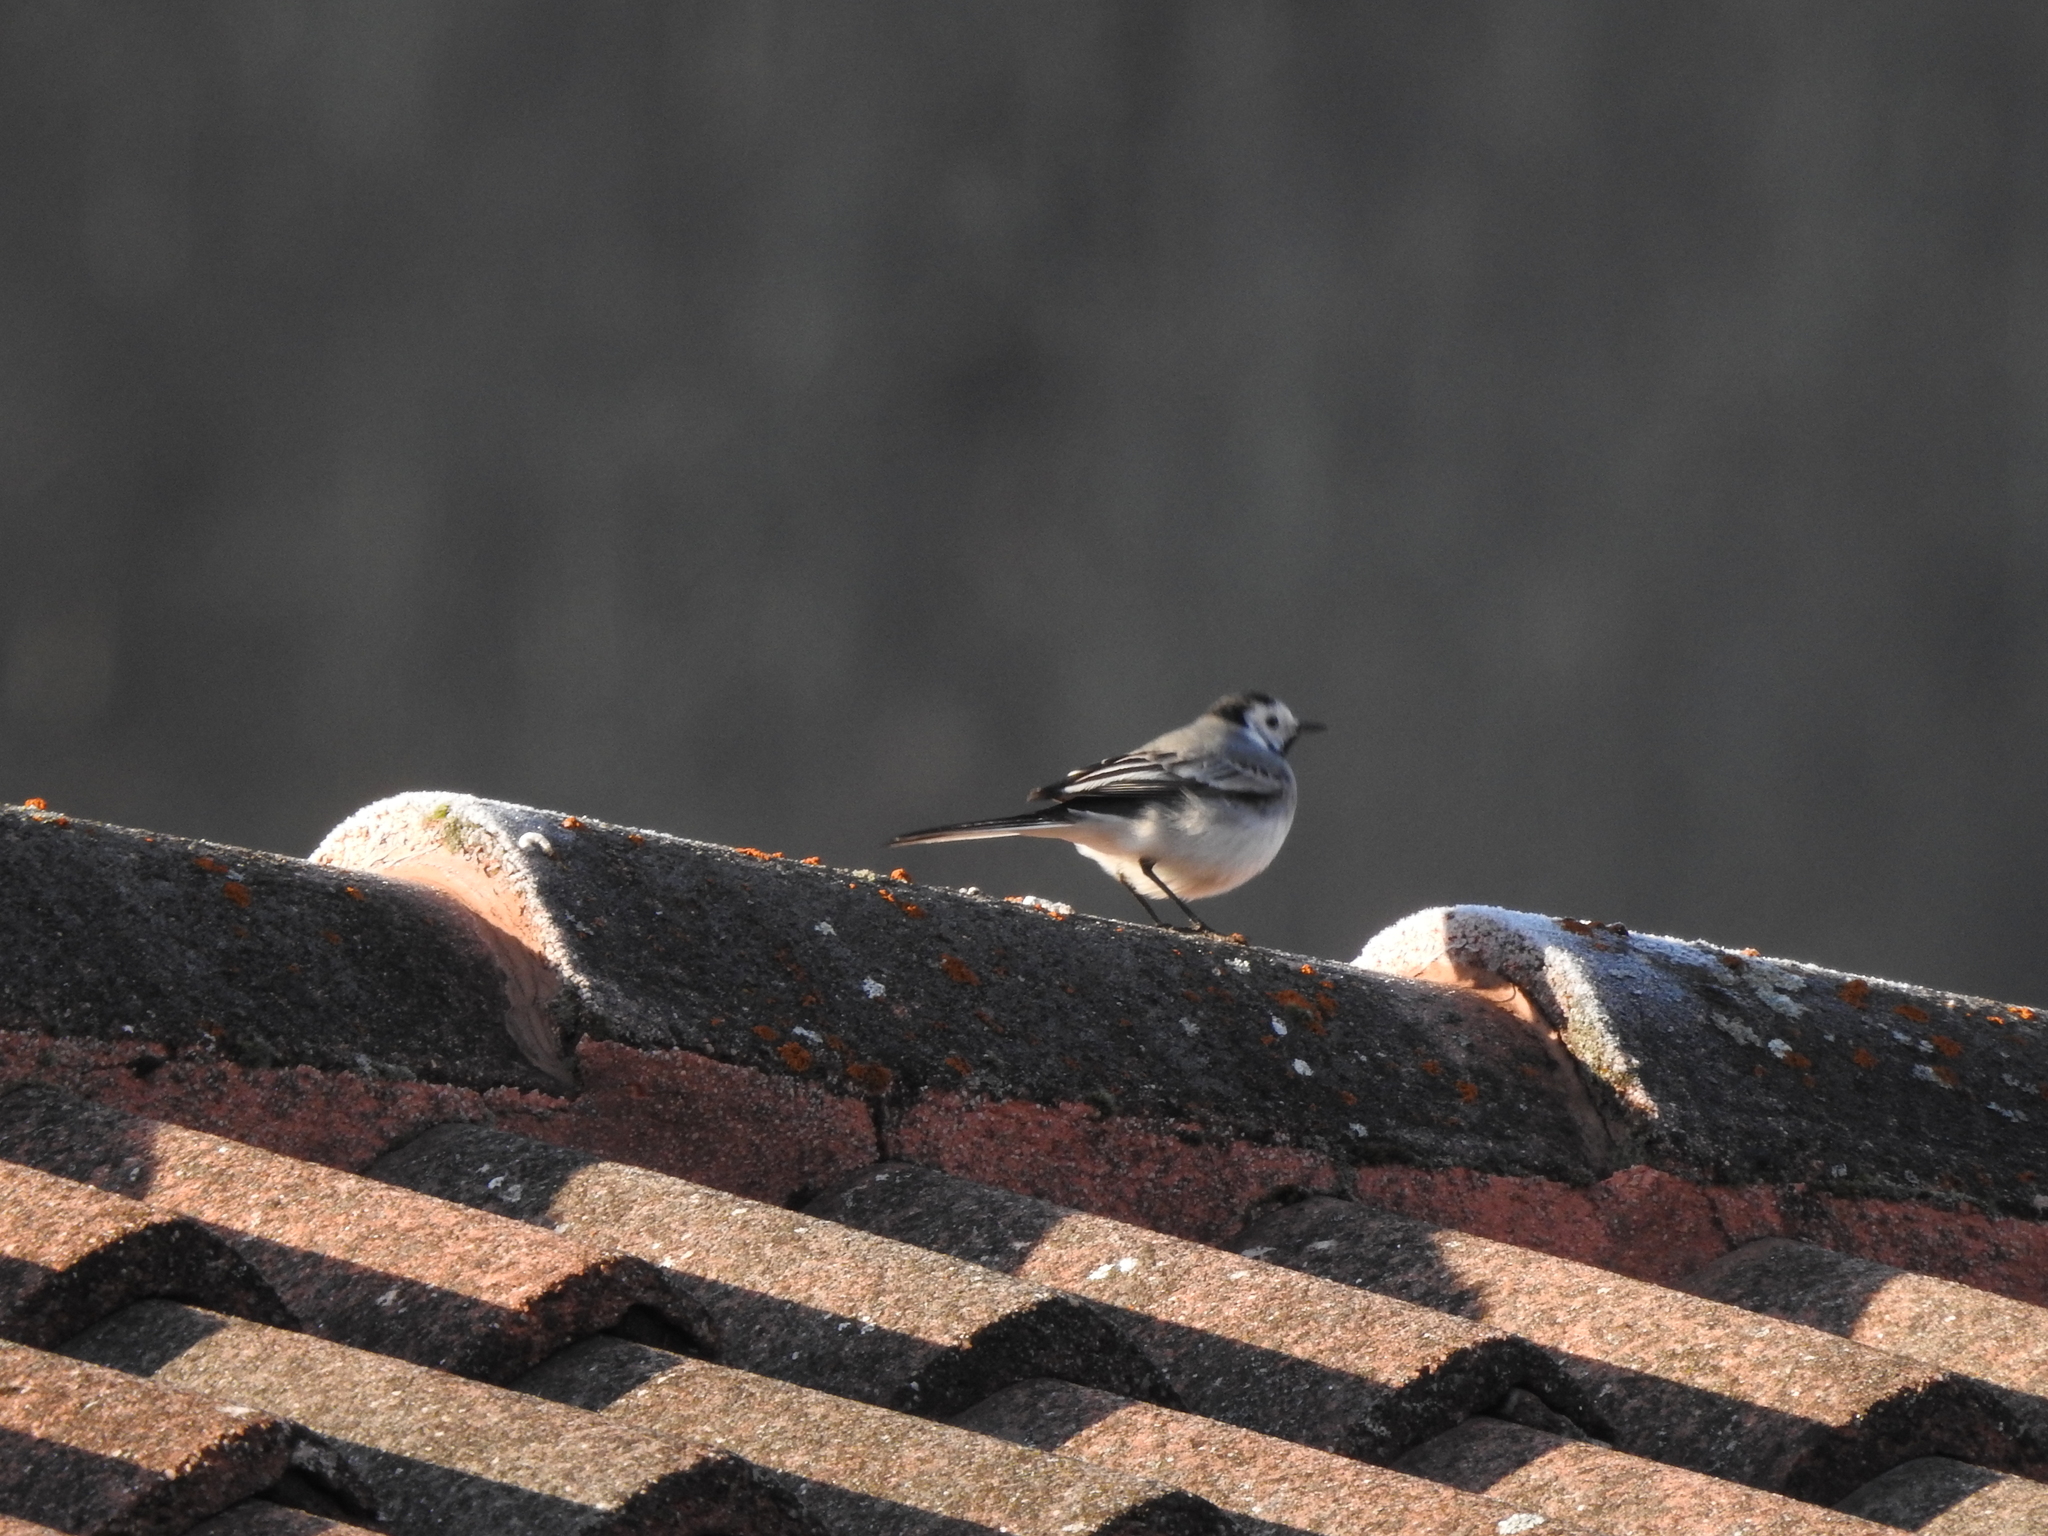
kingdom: Animalia
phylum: Chordata
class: Aves
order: Passeriformes
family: Motacillidae
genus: Motacilla
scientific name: Motacilla alba
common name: White wagtail
